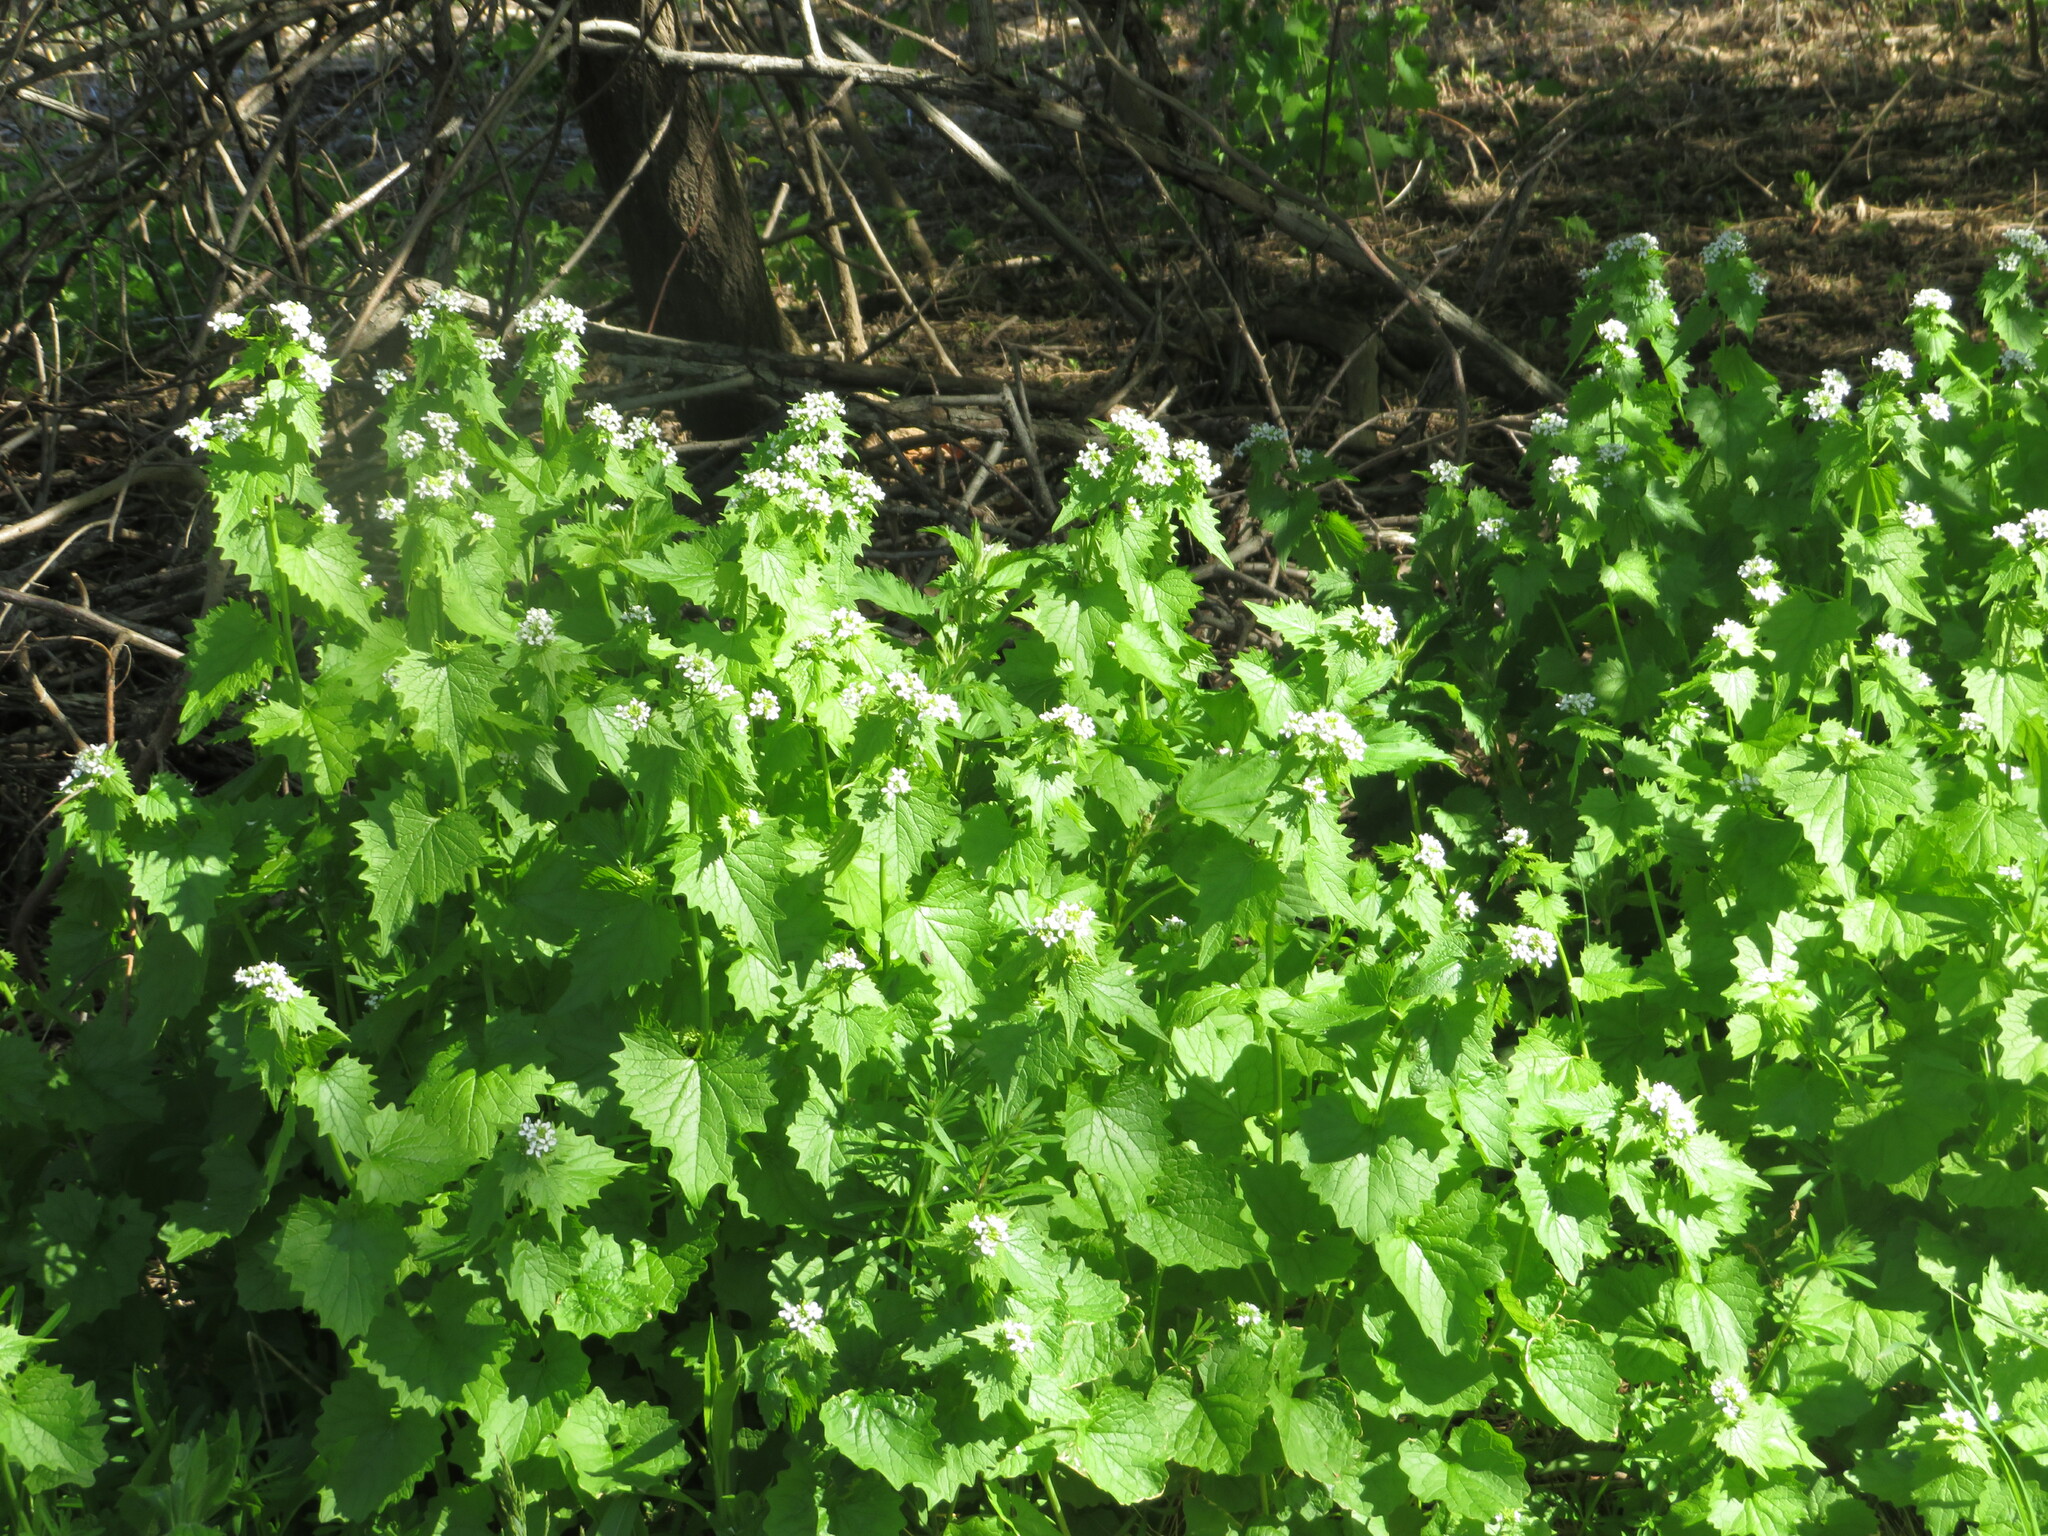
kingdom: Plantae
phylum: Tracheophyta
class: Magnoliopsida
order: Brassicales
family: Brassicaceae
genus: Alliaria
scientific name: Alliaria petiolata
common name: Garlic mustard
